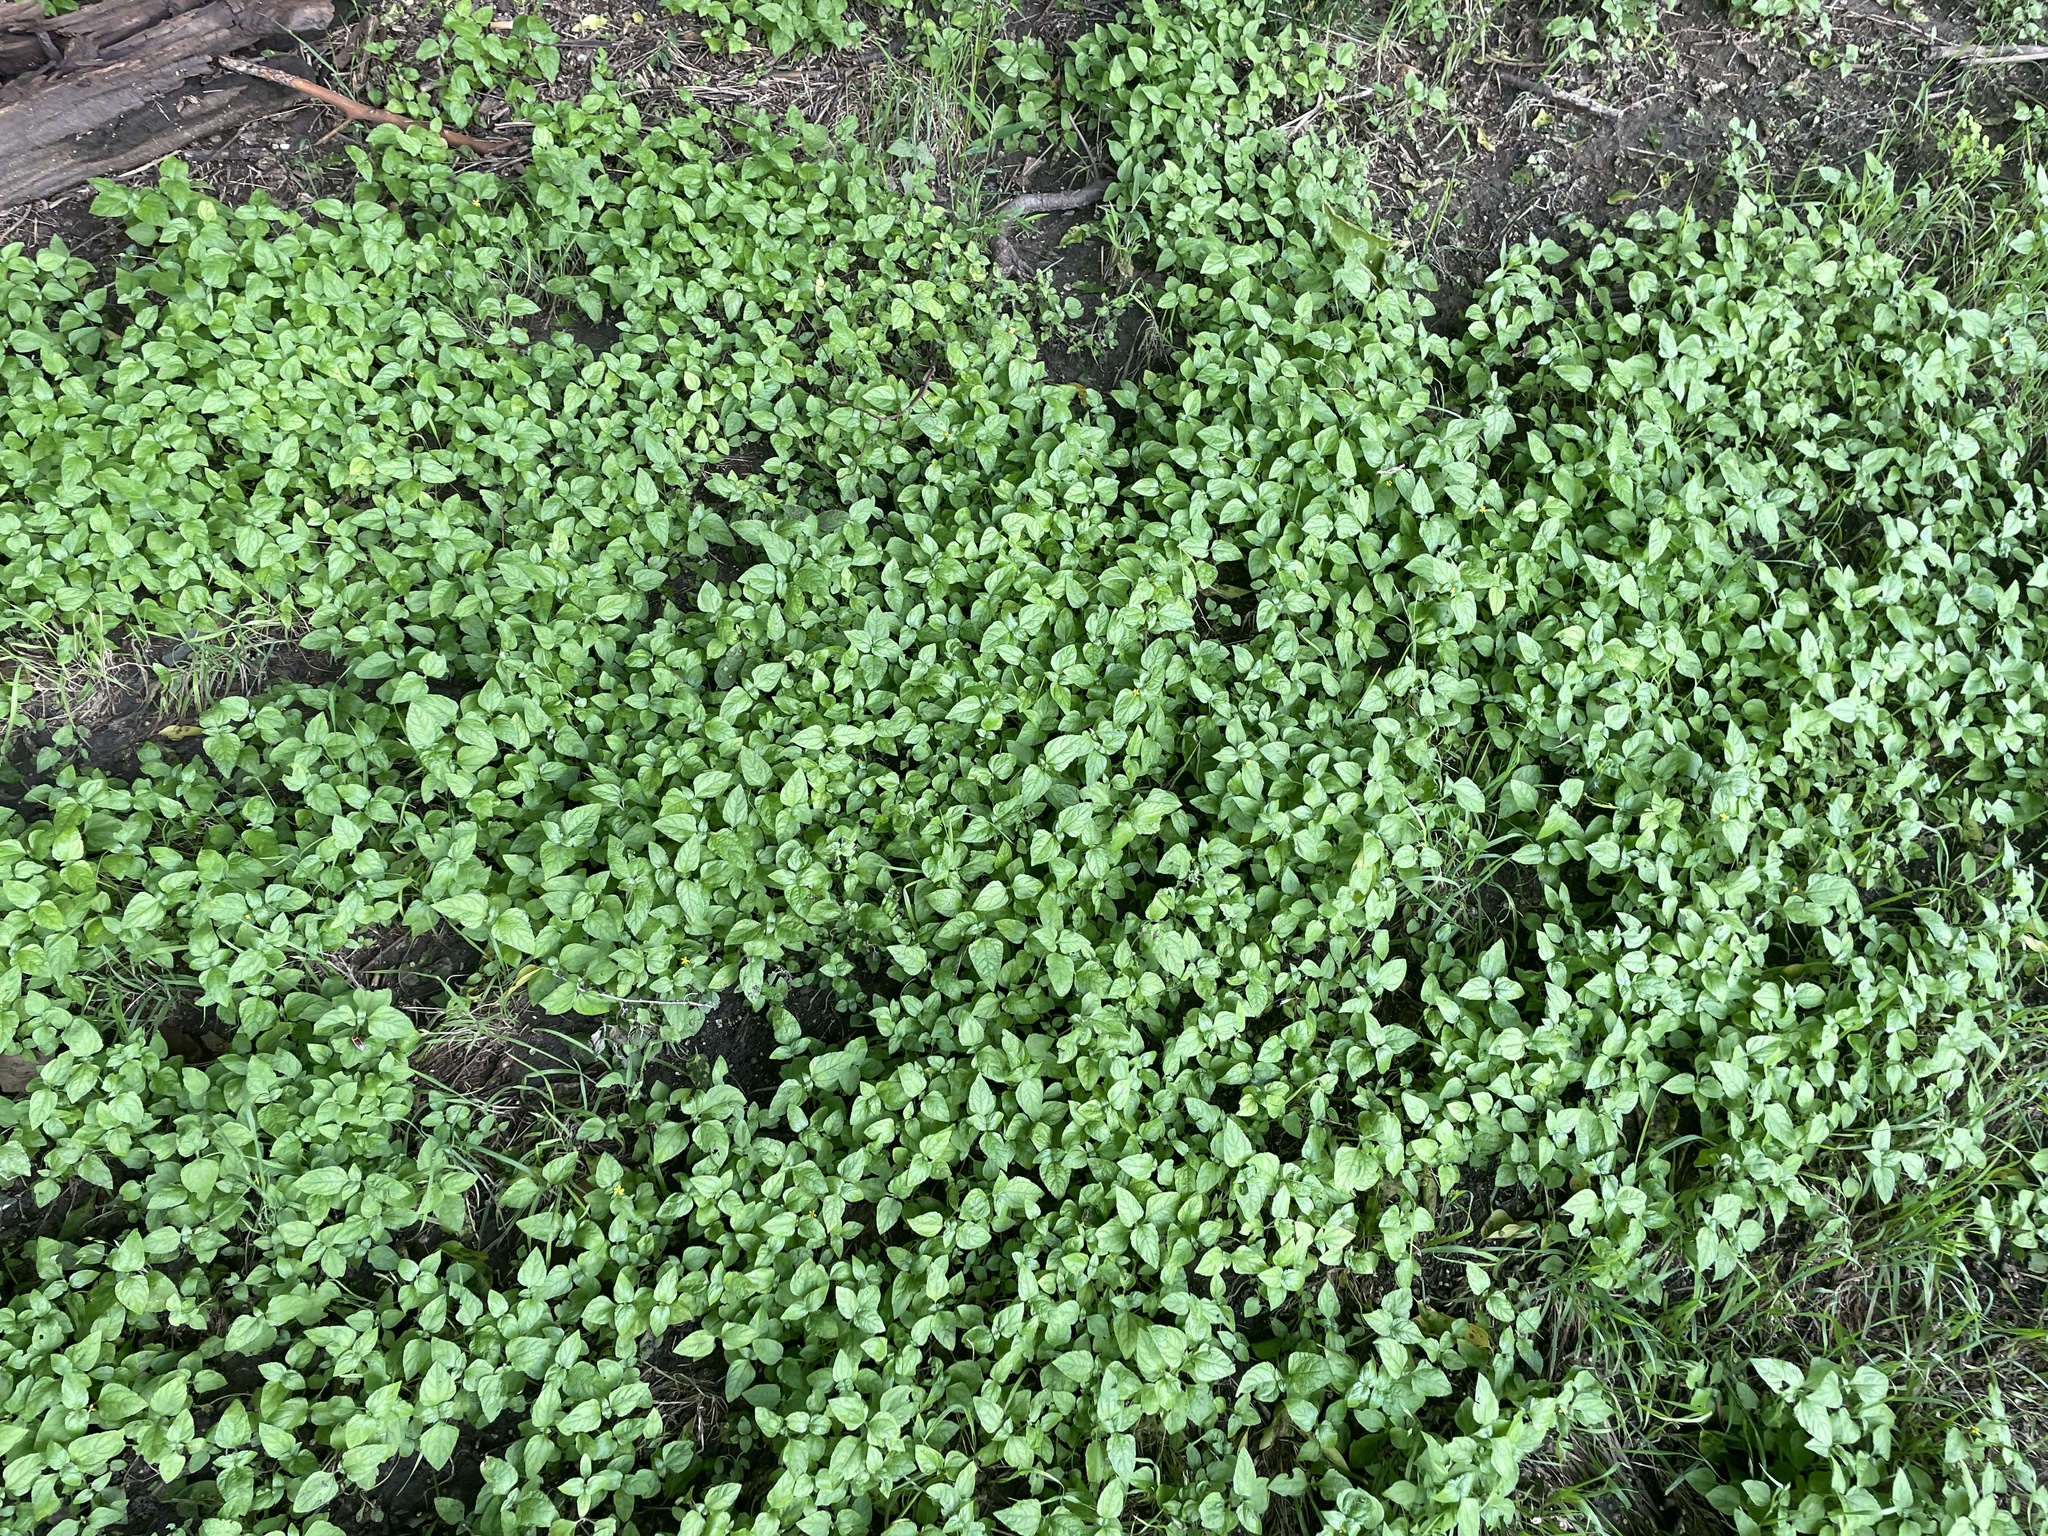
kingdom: Plantae
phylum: Tracheophyta
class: Magnoliopsida
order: Asterales
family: Asteraceae
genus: Calyptocarpus
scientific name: Calyptocarpus vialis
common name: Straggler daisy
